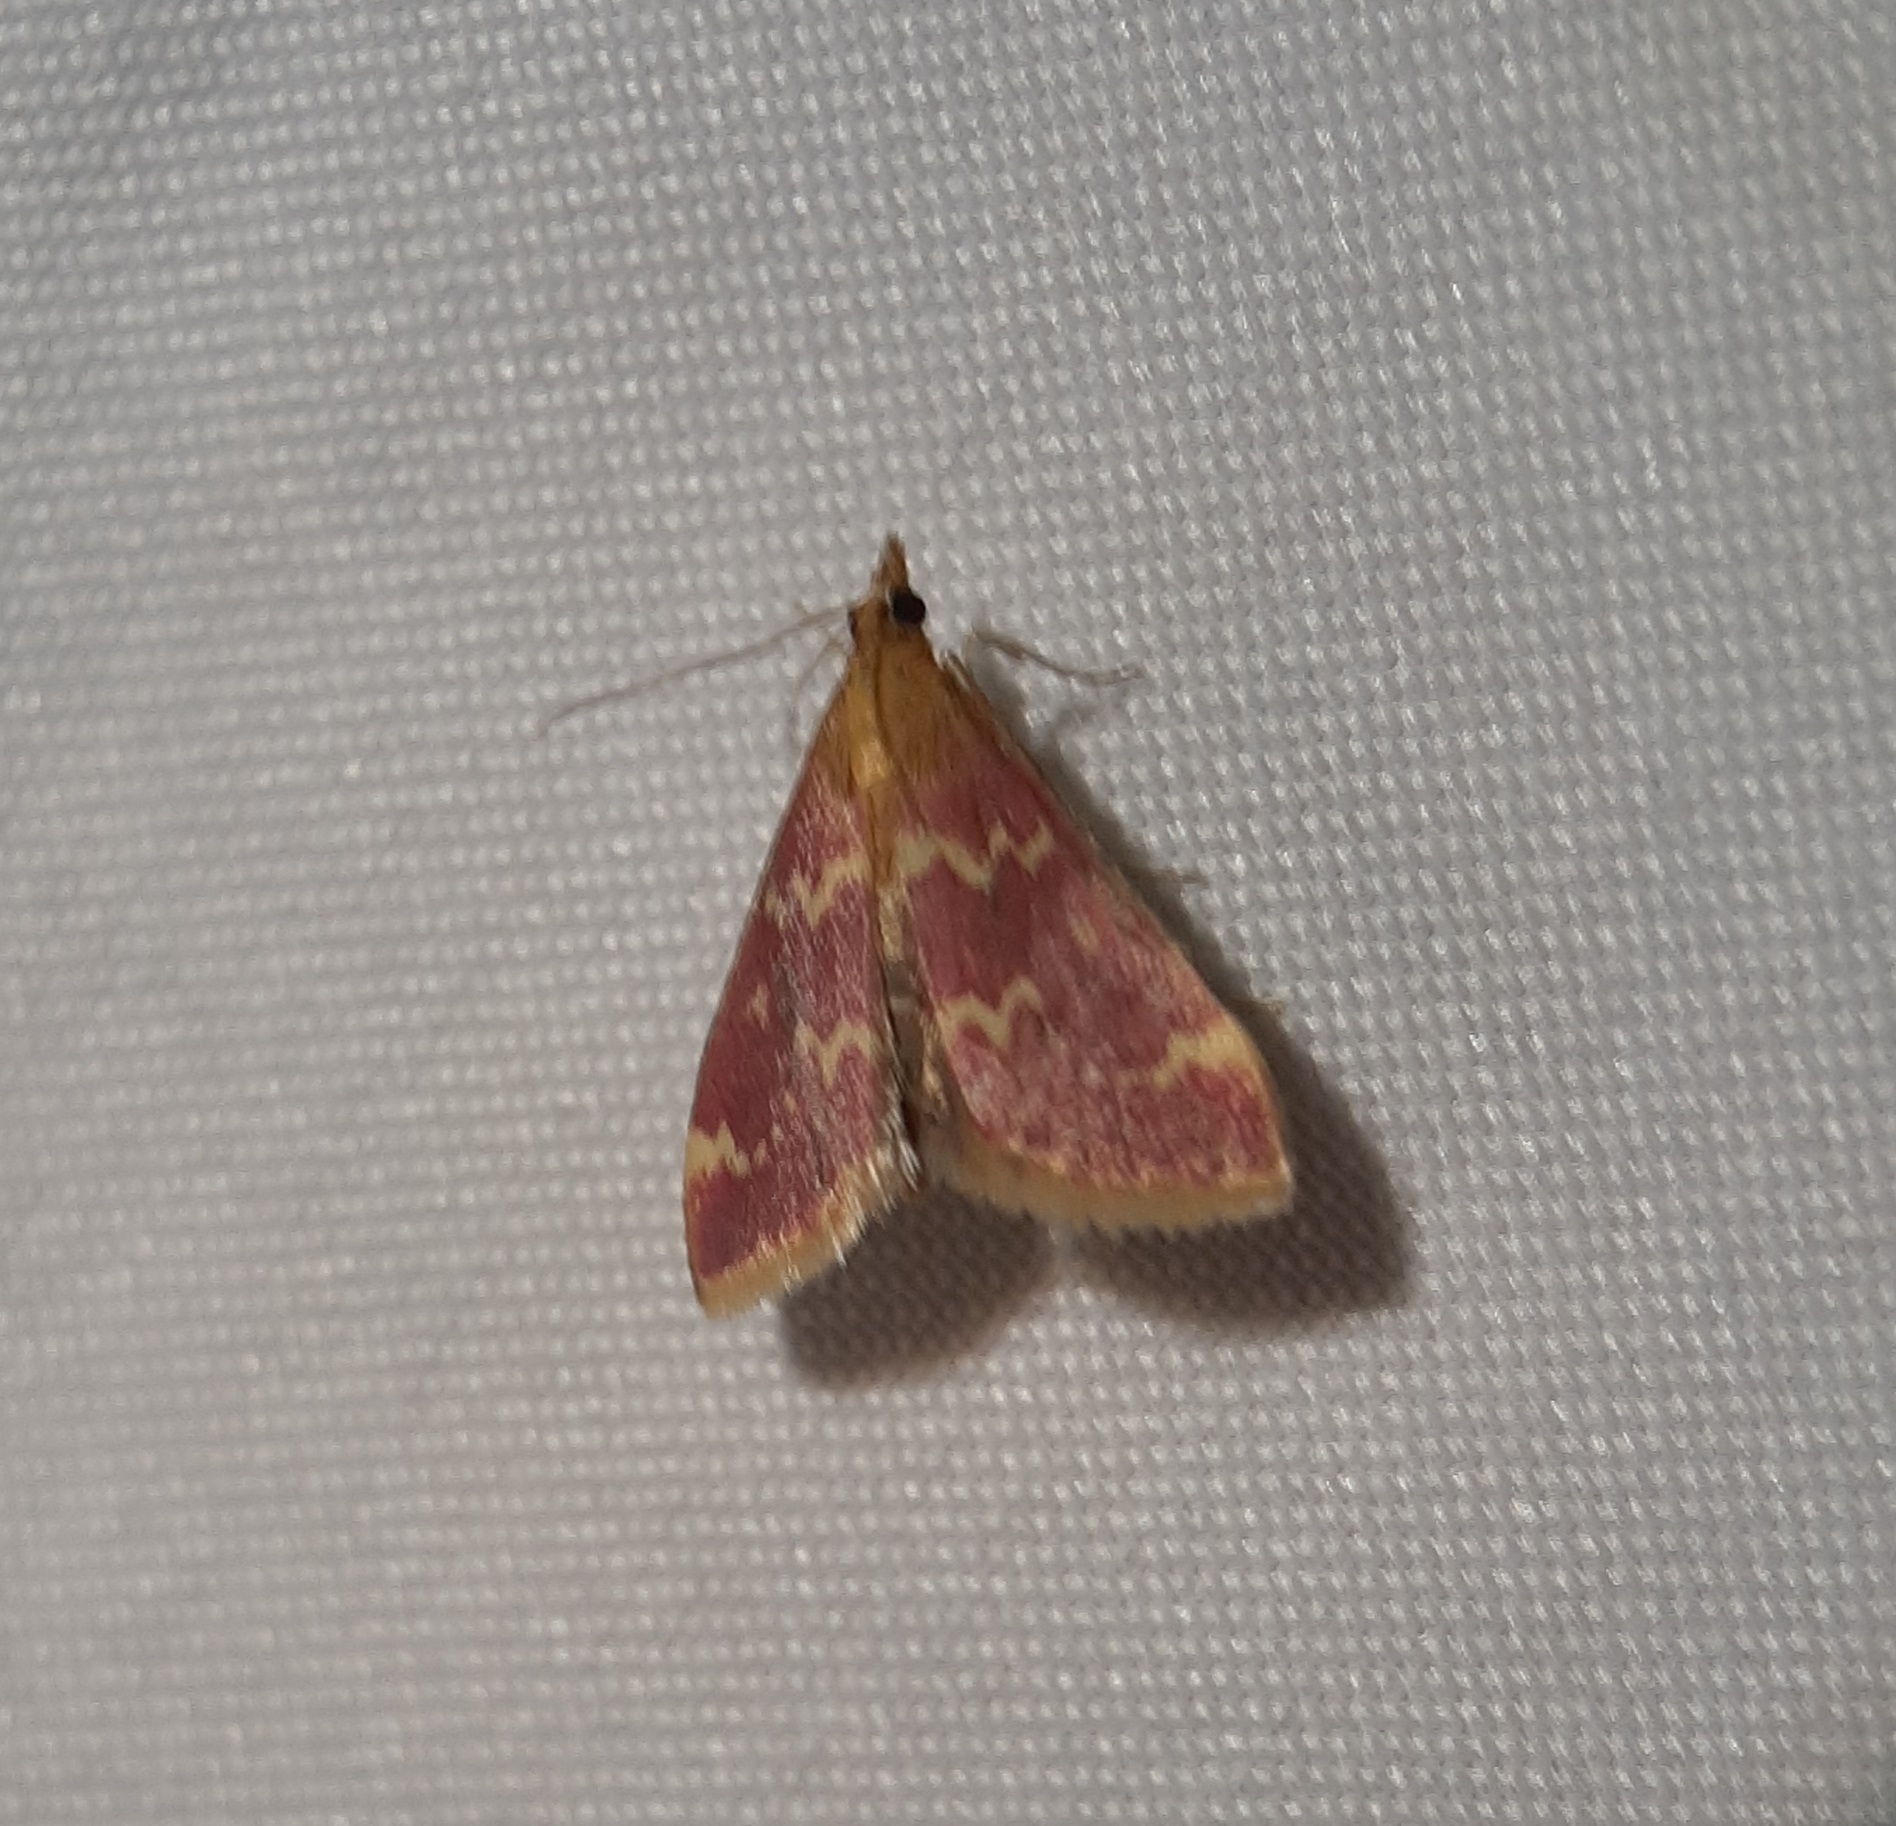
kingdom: Animalia
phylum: Arthropoda
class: Insecta
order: Lepidoptera
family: Crambidae
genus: Pyrausta
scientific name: Pyrausta signatalis
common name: Raspberry pyrausta moth
